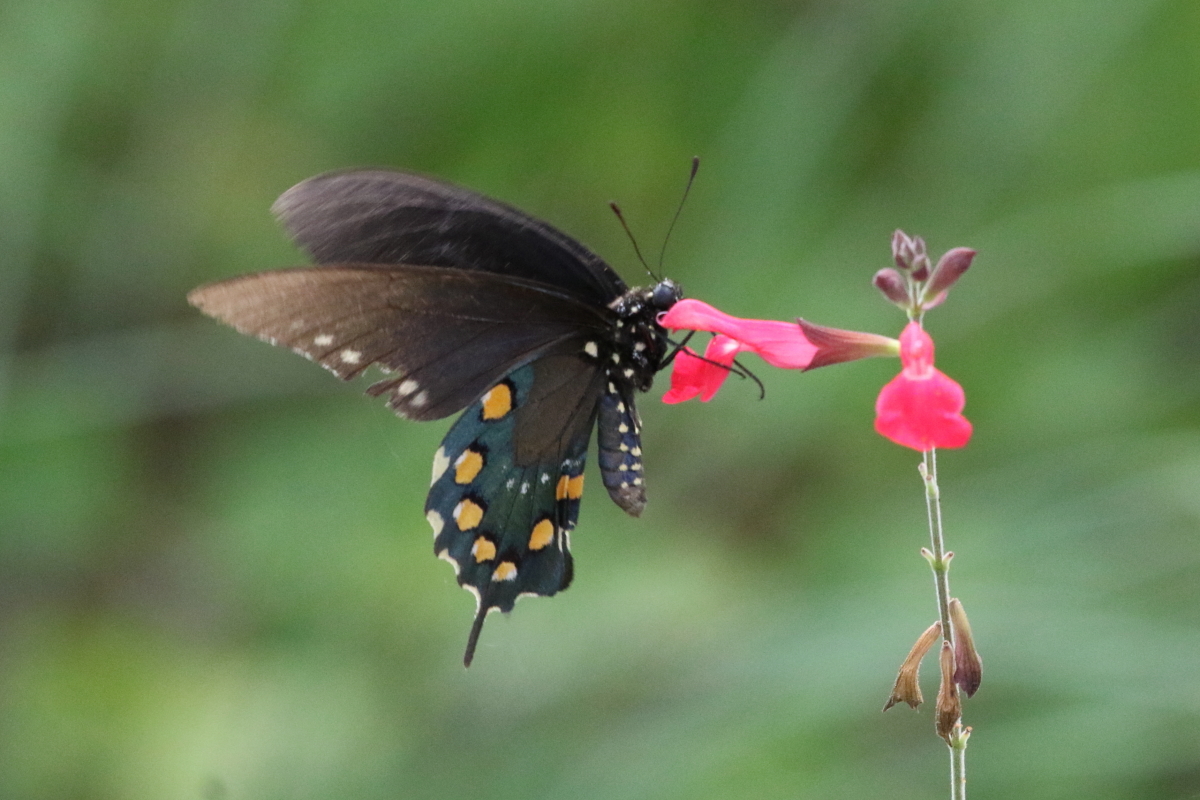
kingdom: Animalia
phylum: Arthropoda
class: Insecta
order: Lepidoptera
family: Papilionidae
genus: Battus
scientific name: Battus philenor
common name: Pipevine swallowtail
